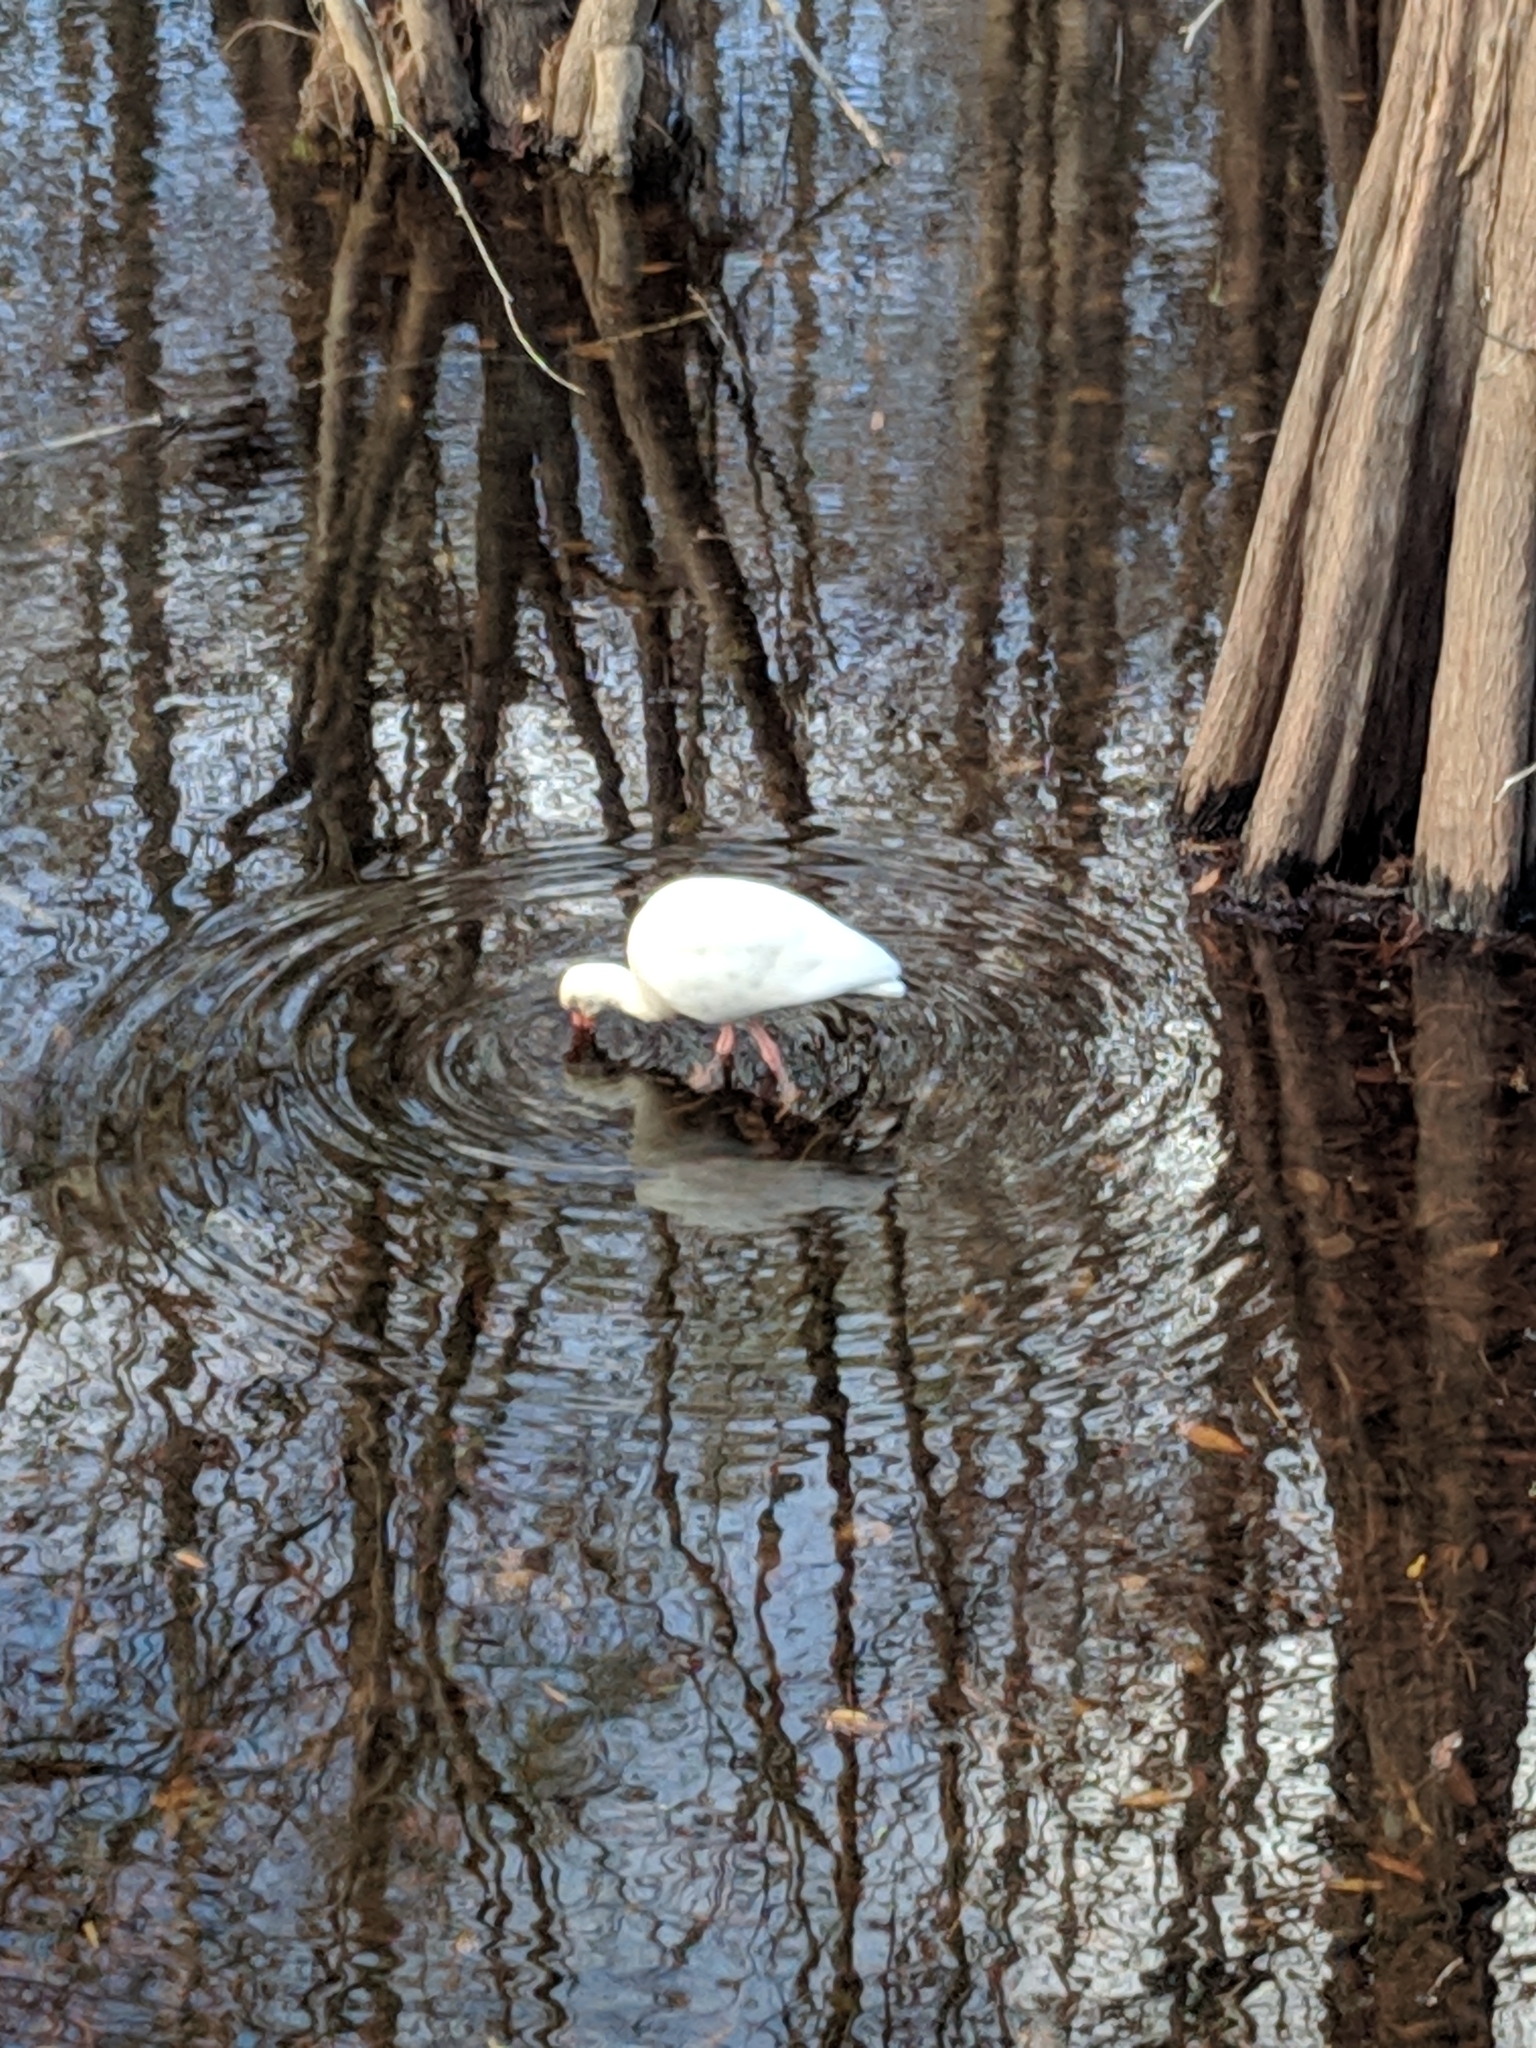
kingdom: Animalia
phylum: Chordata
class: Aves
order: Pelecaniformes
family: Threskiornithidae
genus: Eudocimus
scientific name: Eudocimus albus
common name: White ibis
